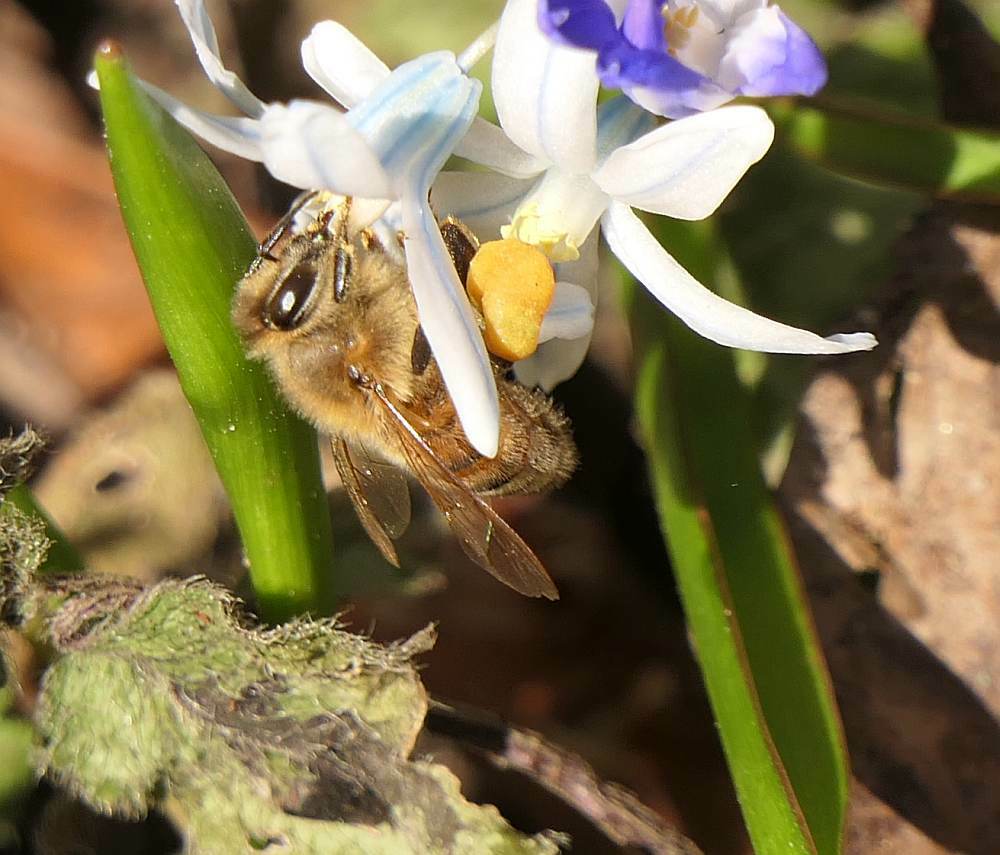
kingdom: Animalia
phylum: Arthropoda
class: Insecta
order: Hymenoptera
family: Apidae
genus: Apis
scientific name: Apis mellifera
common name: Honey bee
